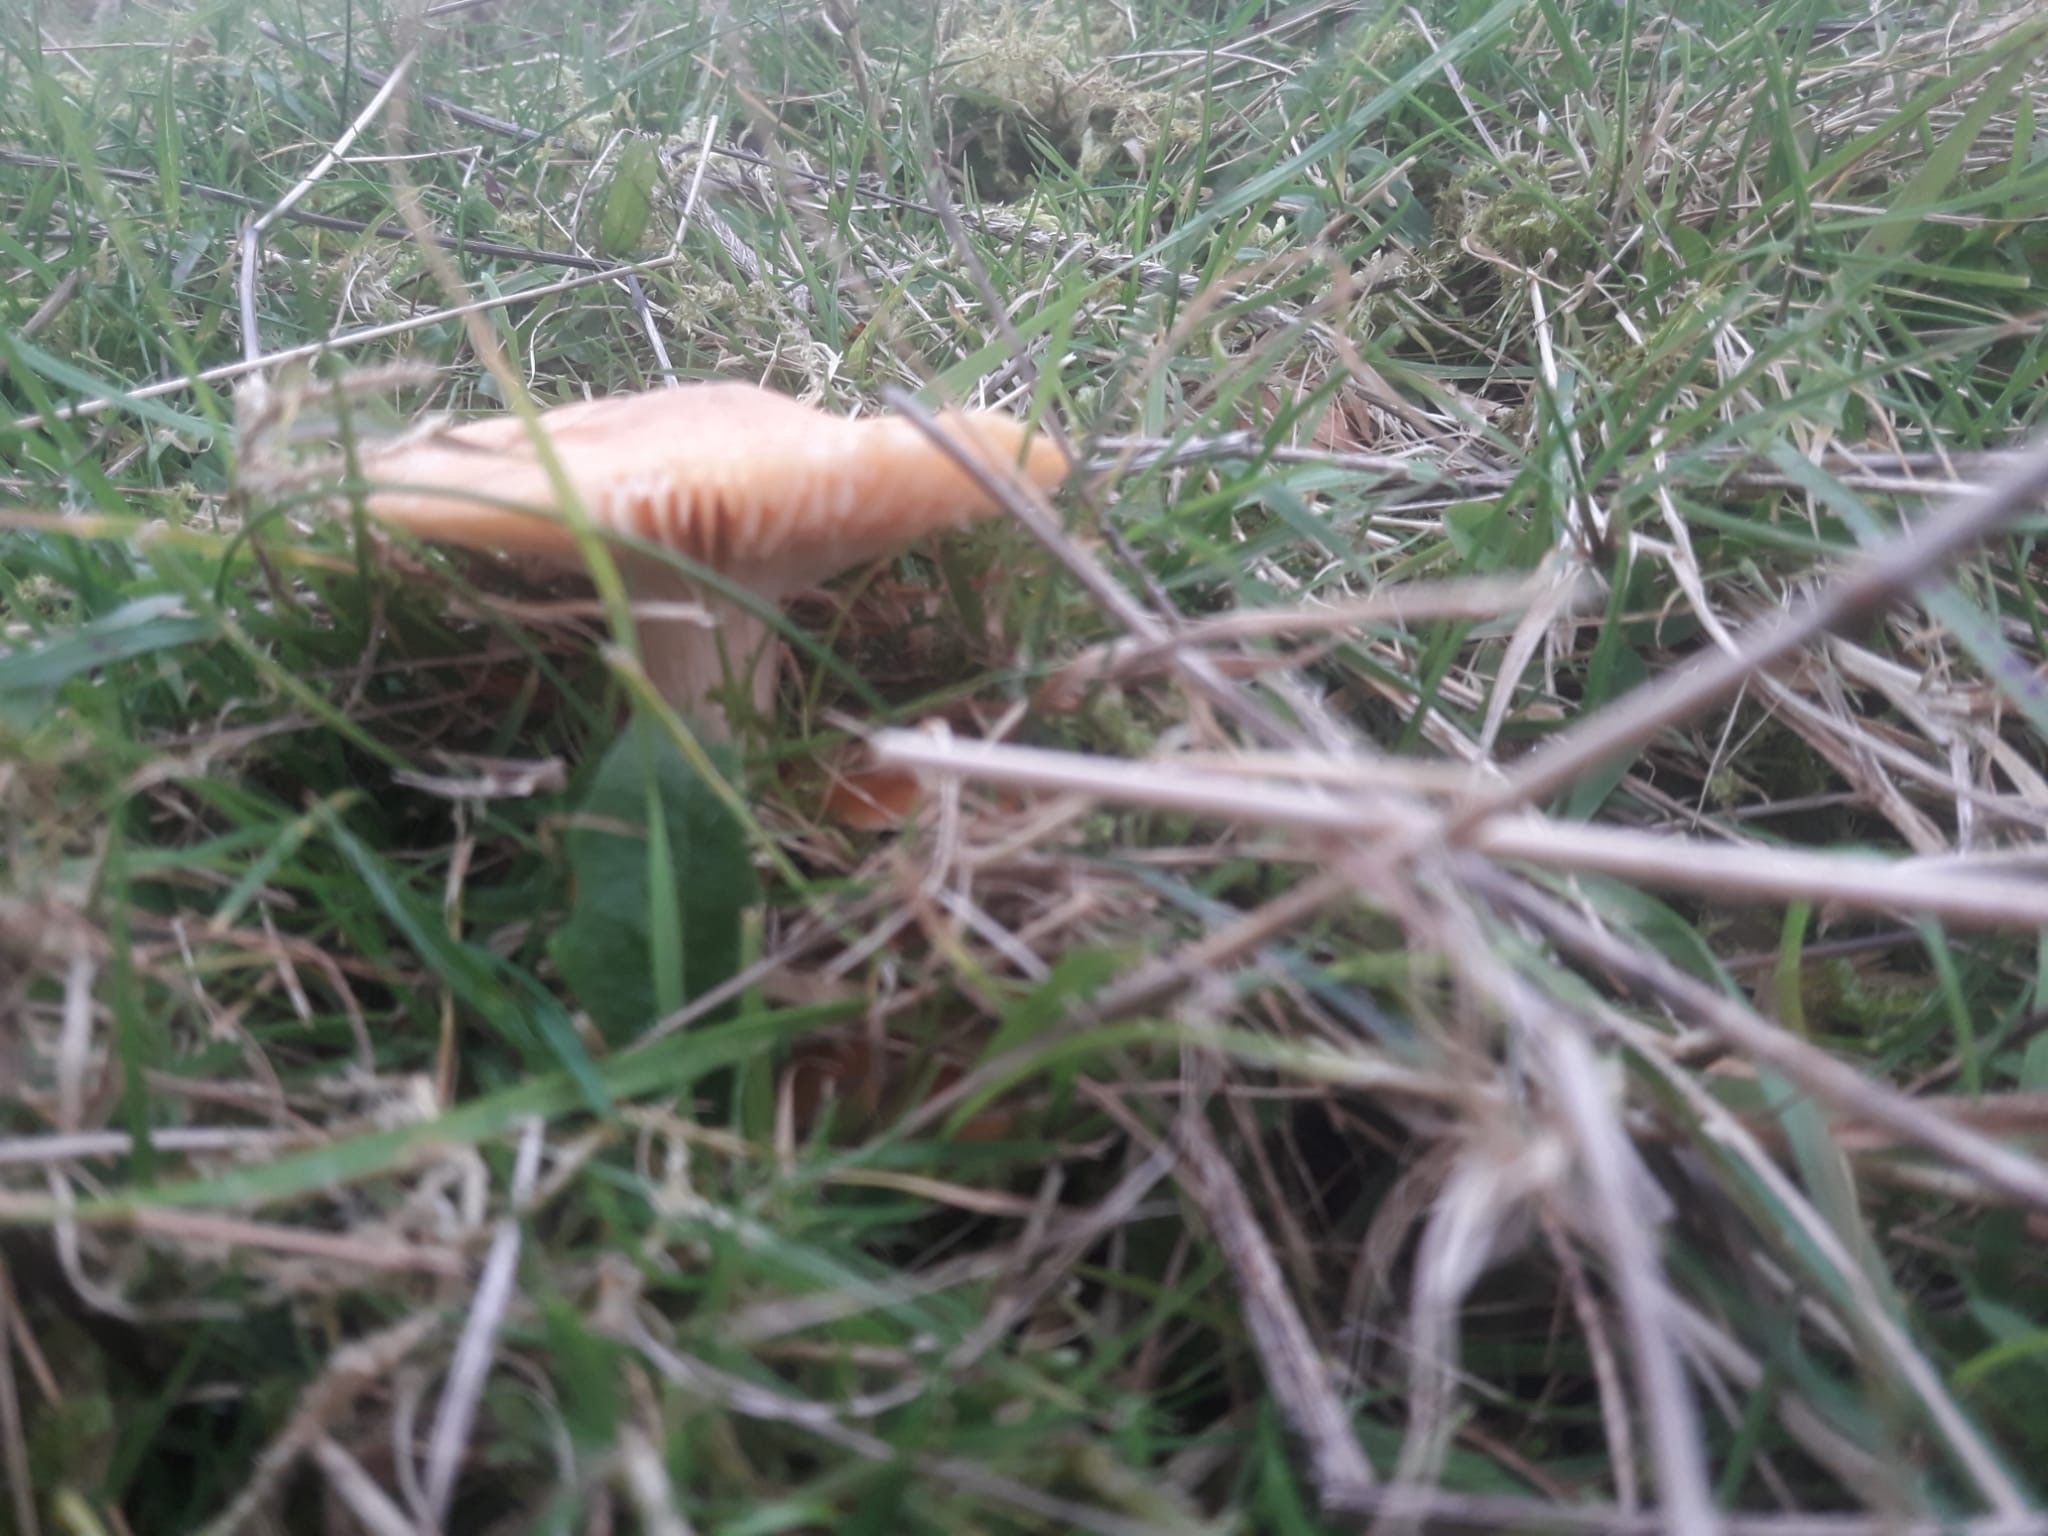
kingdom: Fungi
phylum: Basidiomycota
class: Agaricomycetes
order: Agaricales
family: Hygrophoraceae
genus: Cuphophyllus
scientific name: Cuphophyllus pratensis
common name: Meadow waxcap
